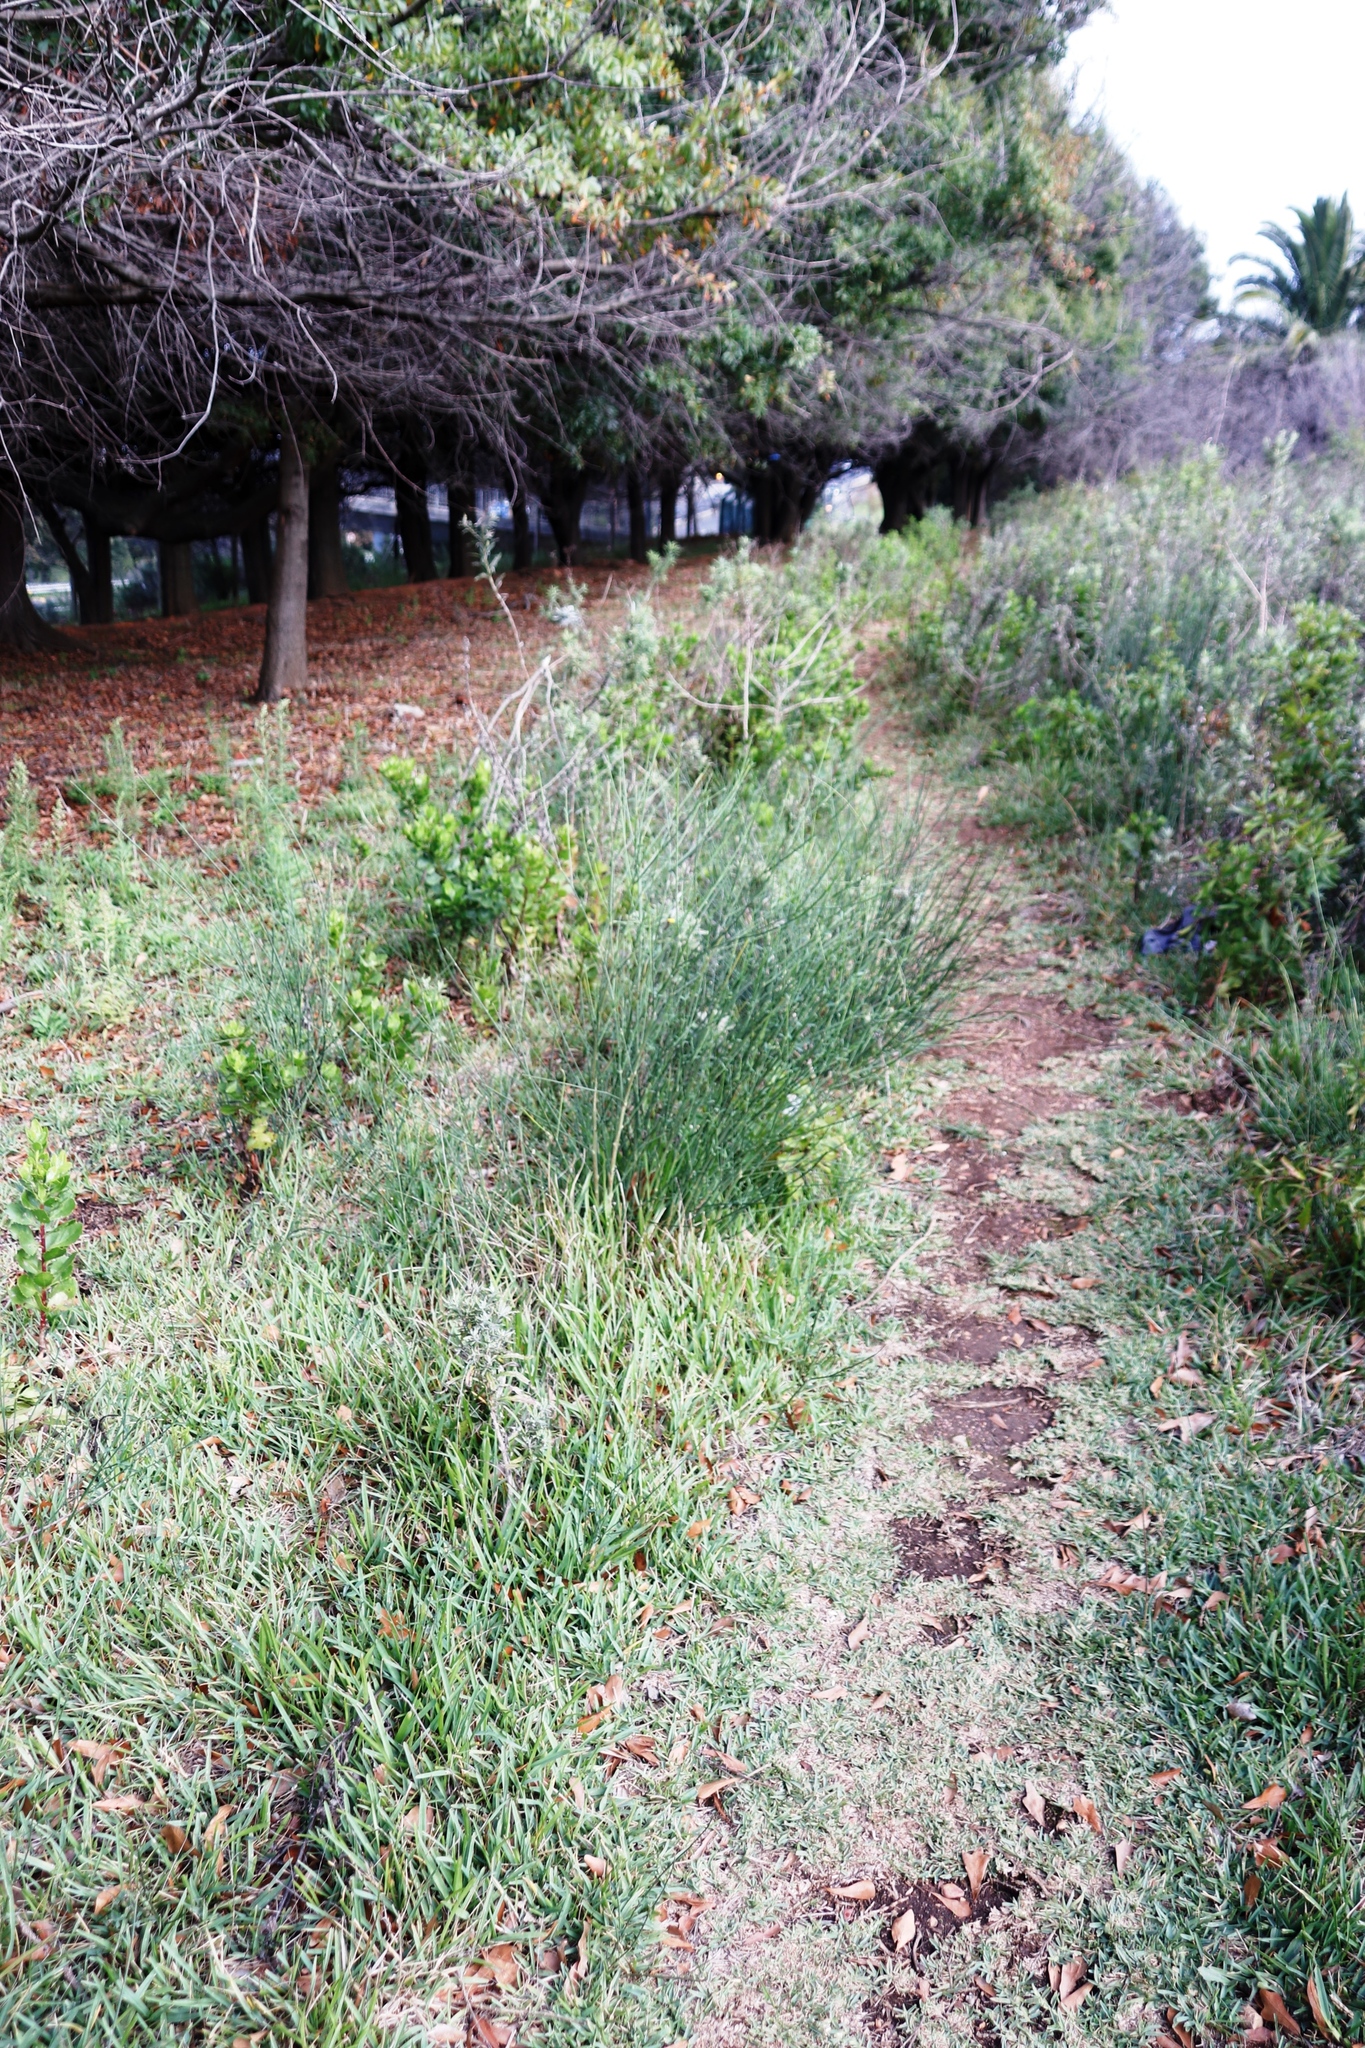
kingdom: Plantae
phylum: Tracheophyta
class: Magnoliopsida
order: Fabales
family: Fabaceae
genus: Spartium
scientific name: Spartium junceum
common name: Spanish broom
